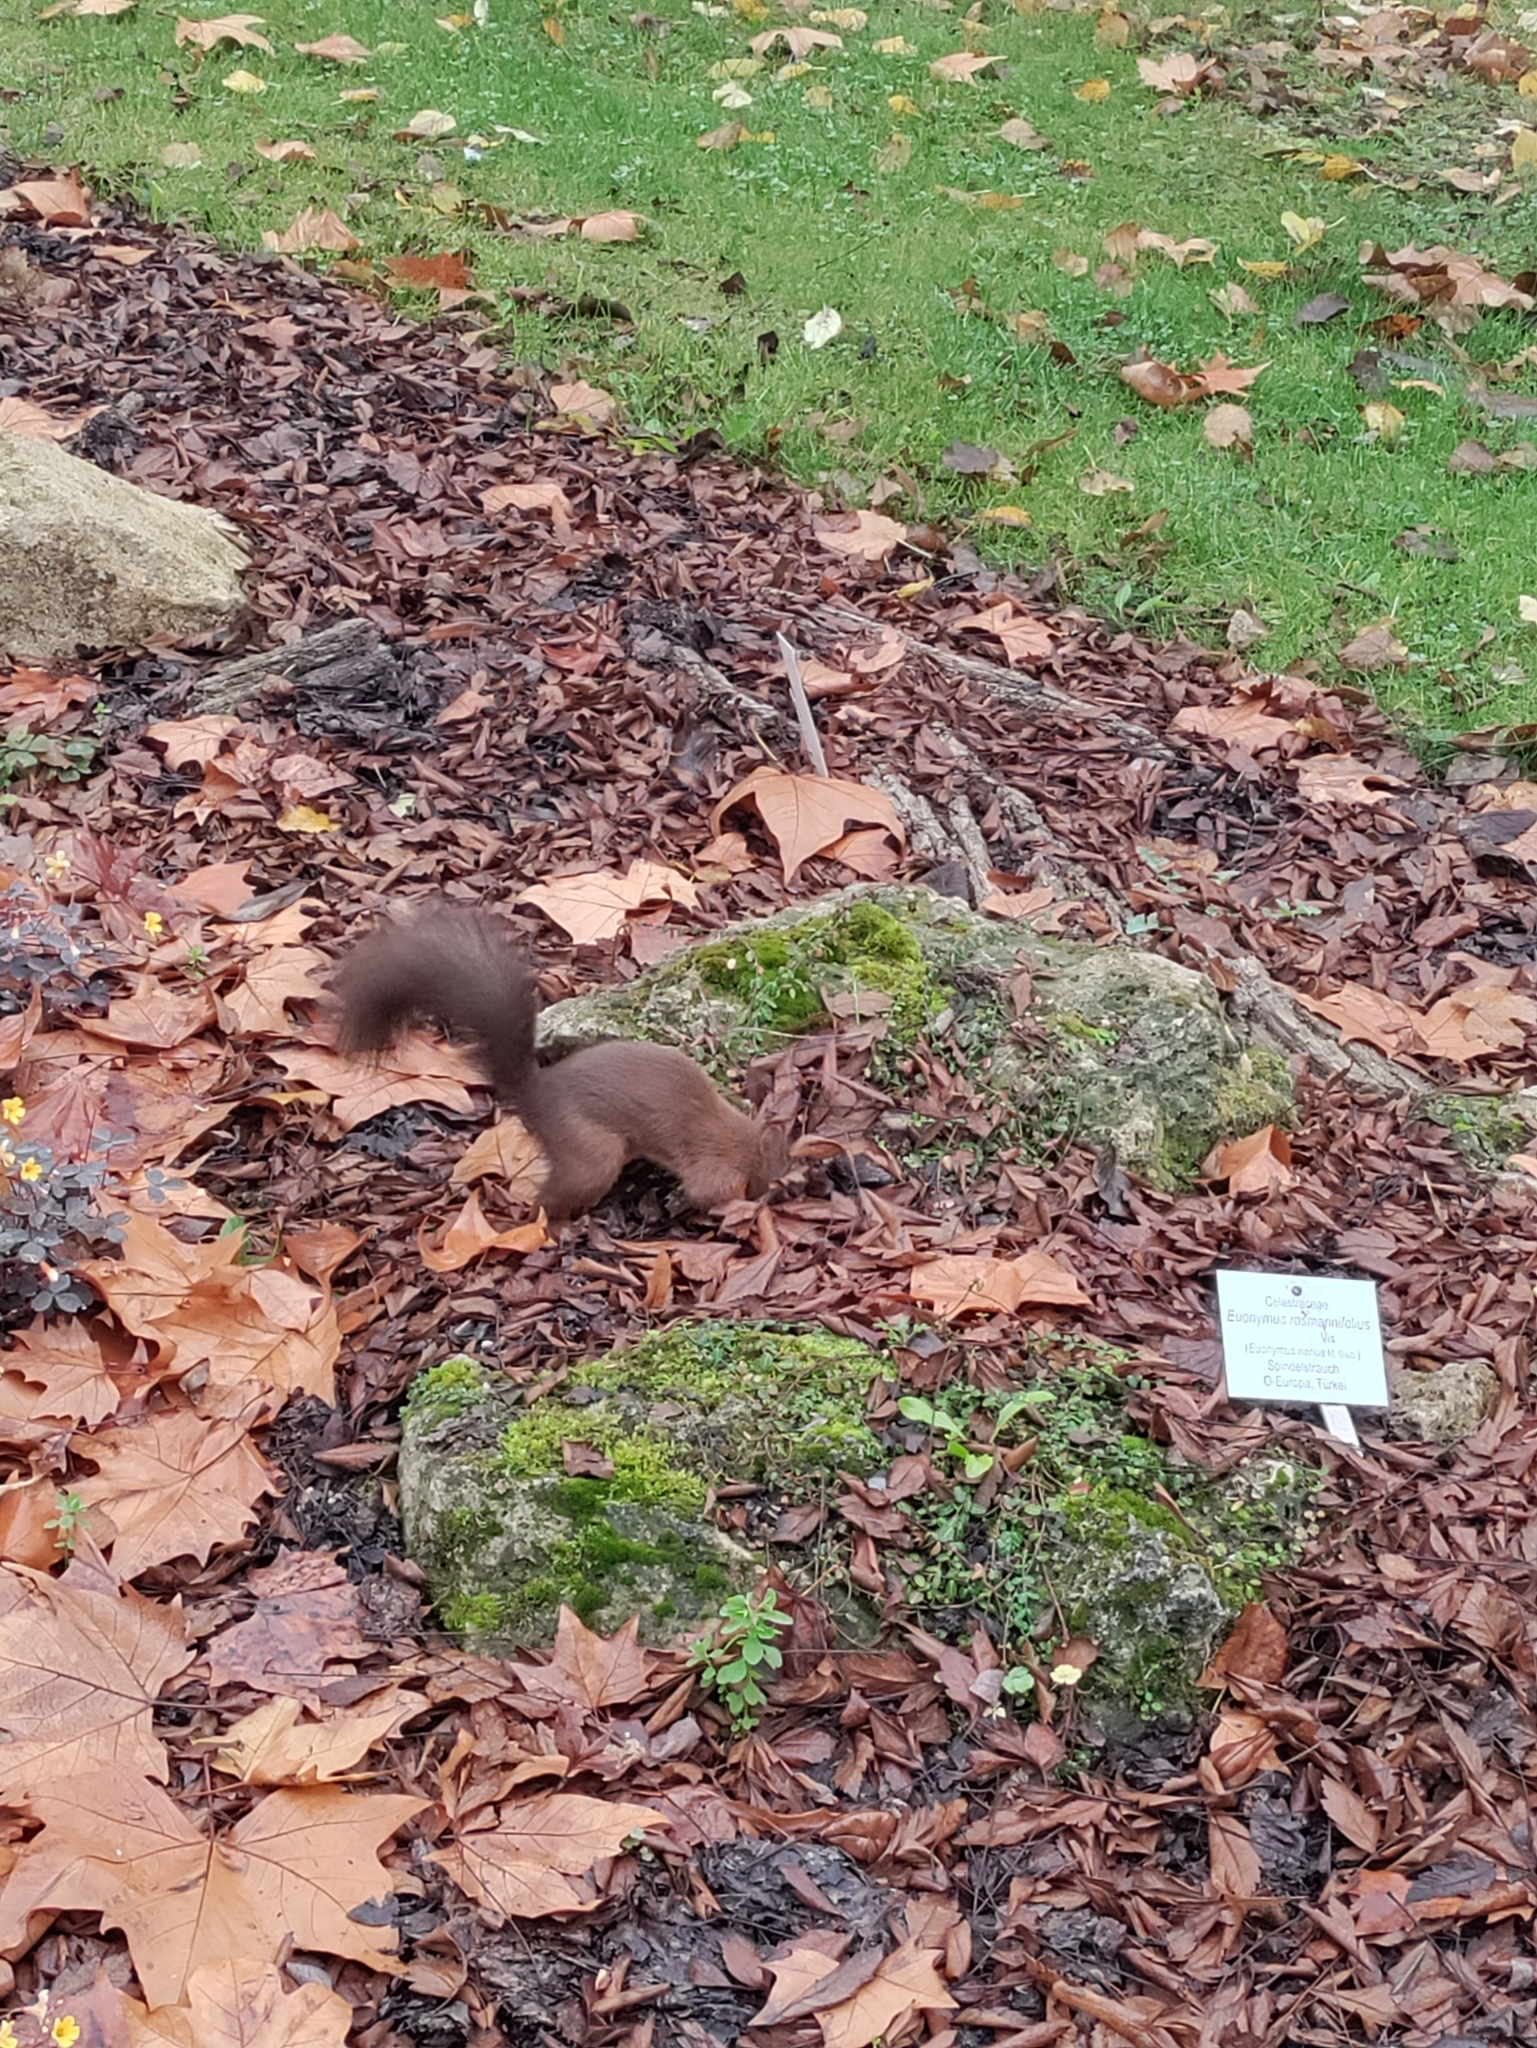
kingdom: Animalia
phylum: Chordata
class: Mammalia
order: Rodentia
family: Sciuridae
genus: Sciurus
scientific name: Sciurus vulgaris
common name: Eurasian red squirrel
